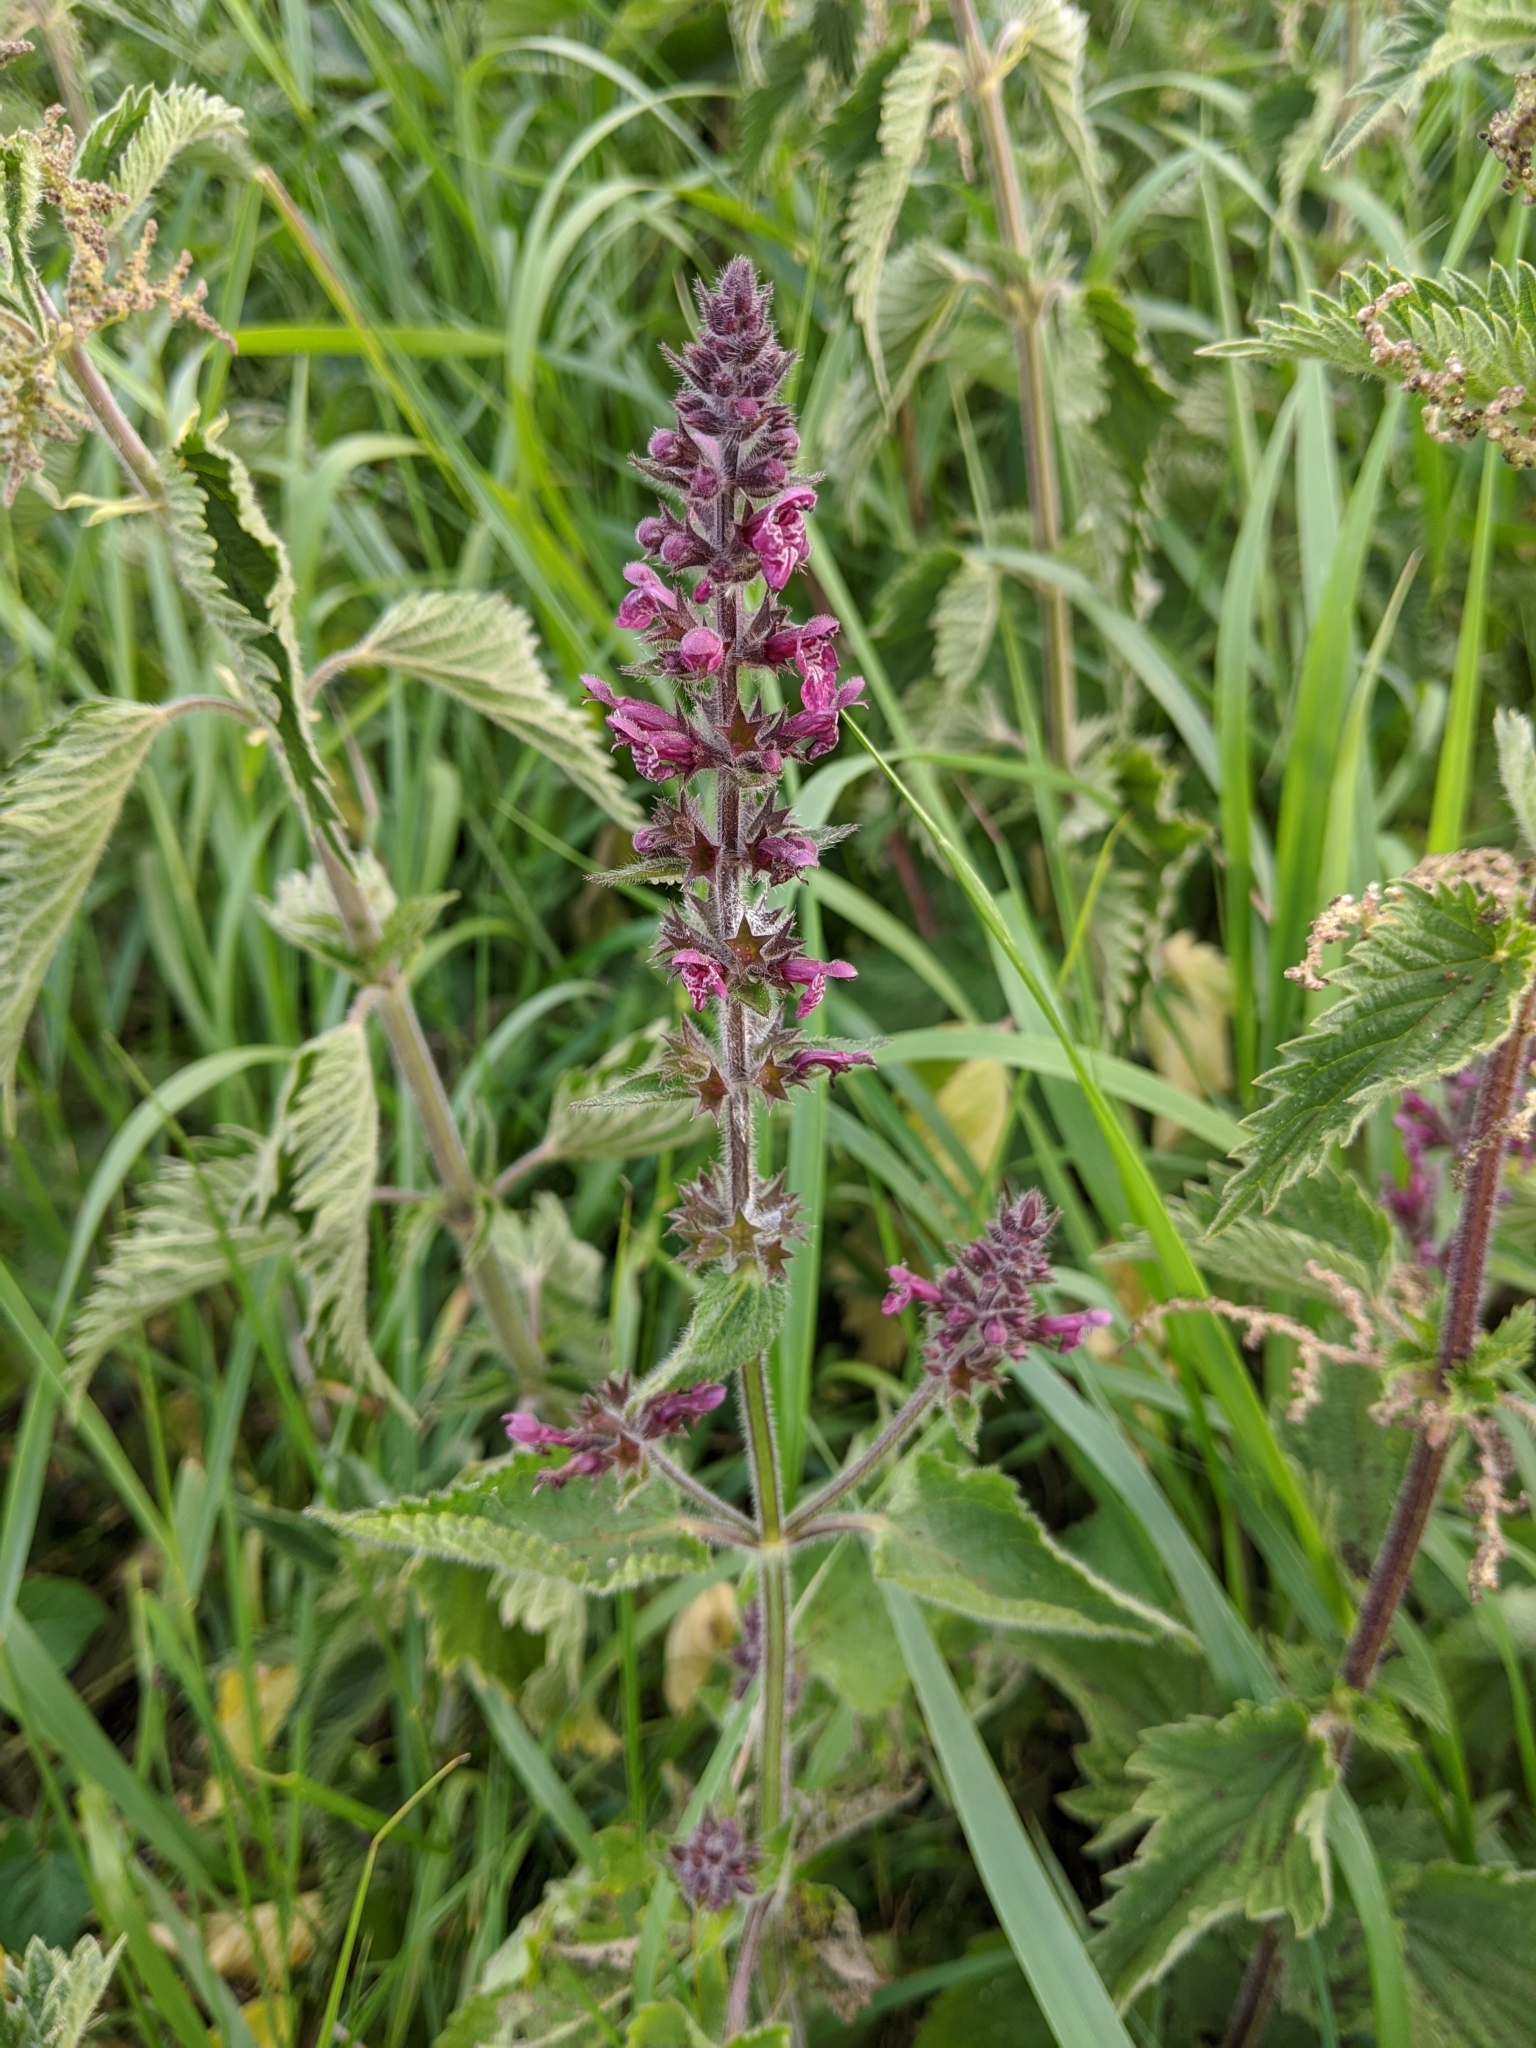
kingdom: Plantae
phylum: Tracheophyta
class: Magnoliopsida
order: Lamiales
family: Lamiaceae
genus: Stachys
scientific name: Stachys sylvatica
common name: Hedge woundwort
